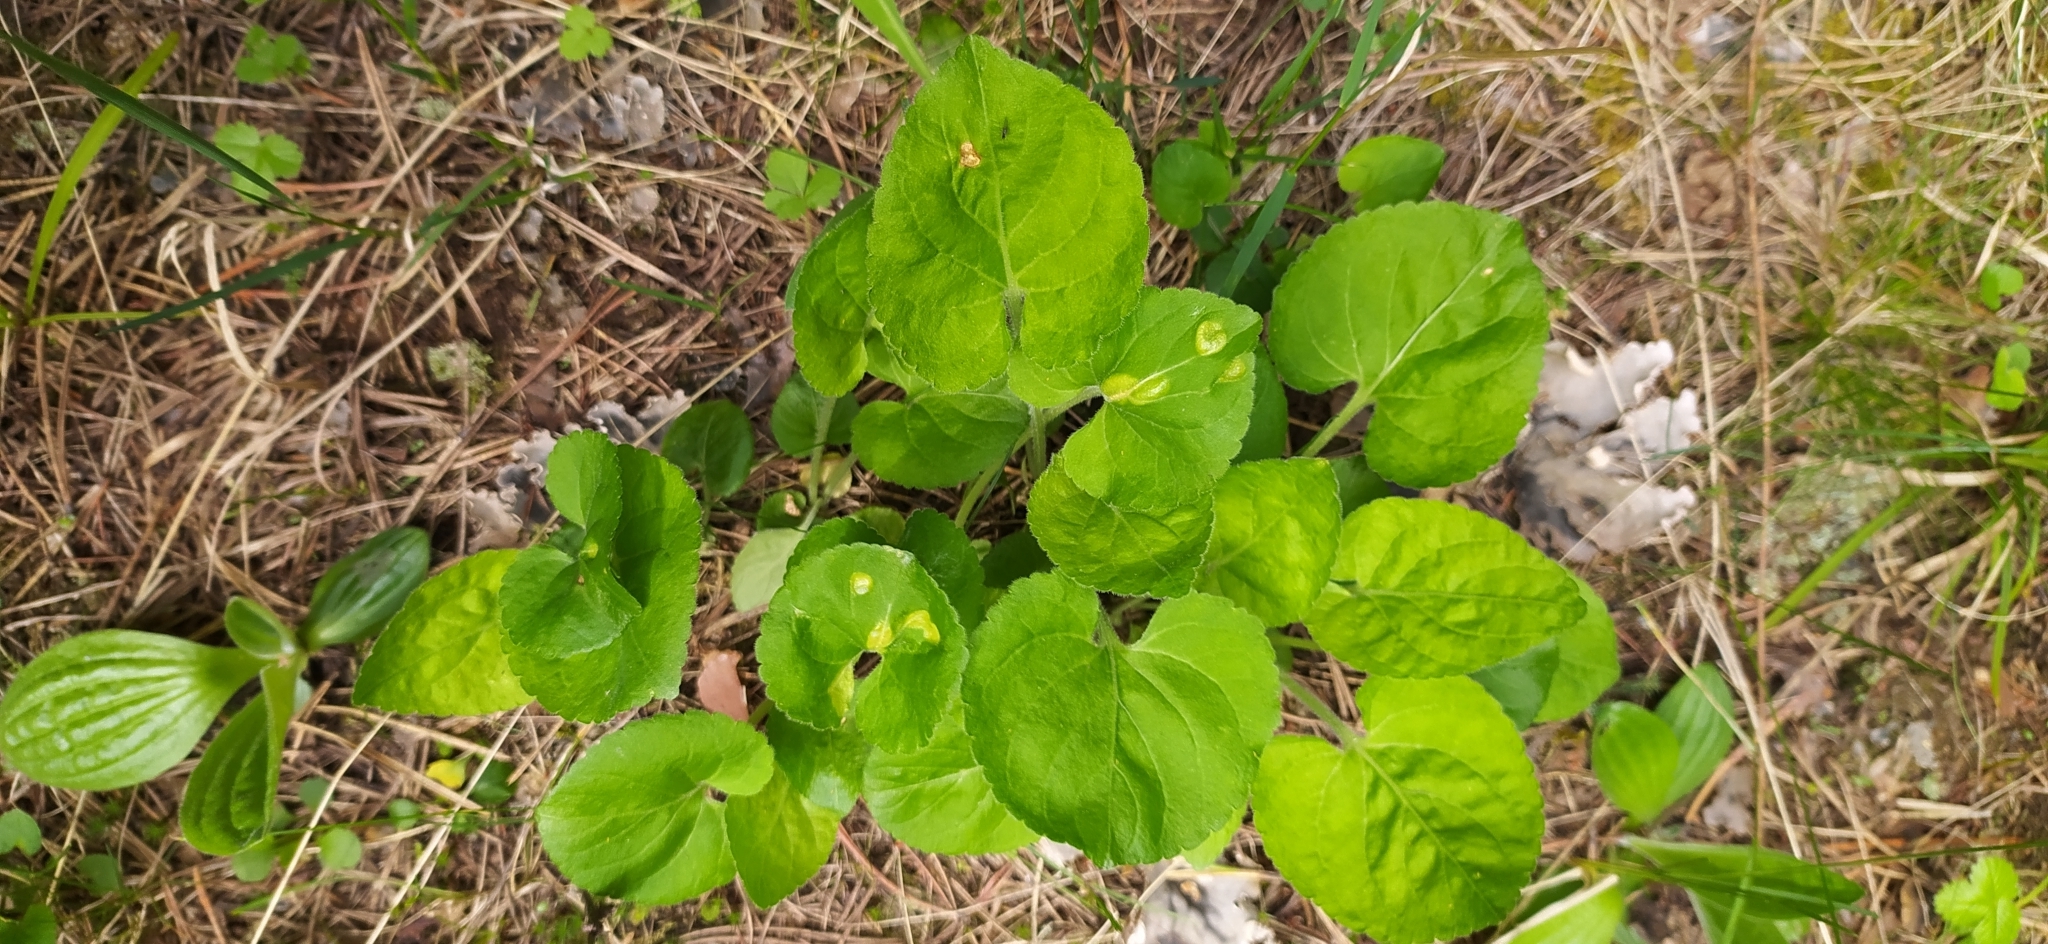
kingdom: Plantae
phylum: Tracheophyta
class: Magnoliopsida
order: Malpighiales
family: Violaceae
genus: Viola
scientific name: Viola collina
